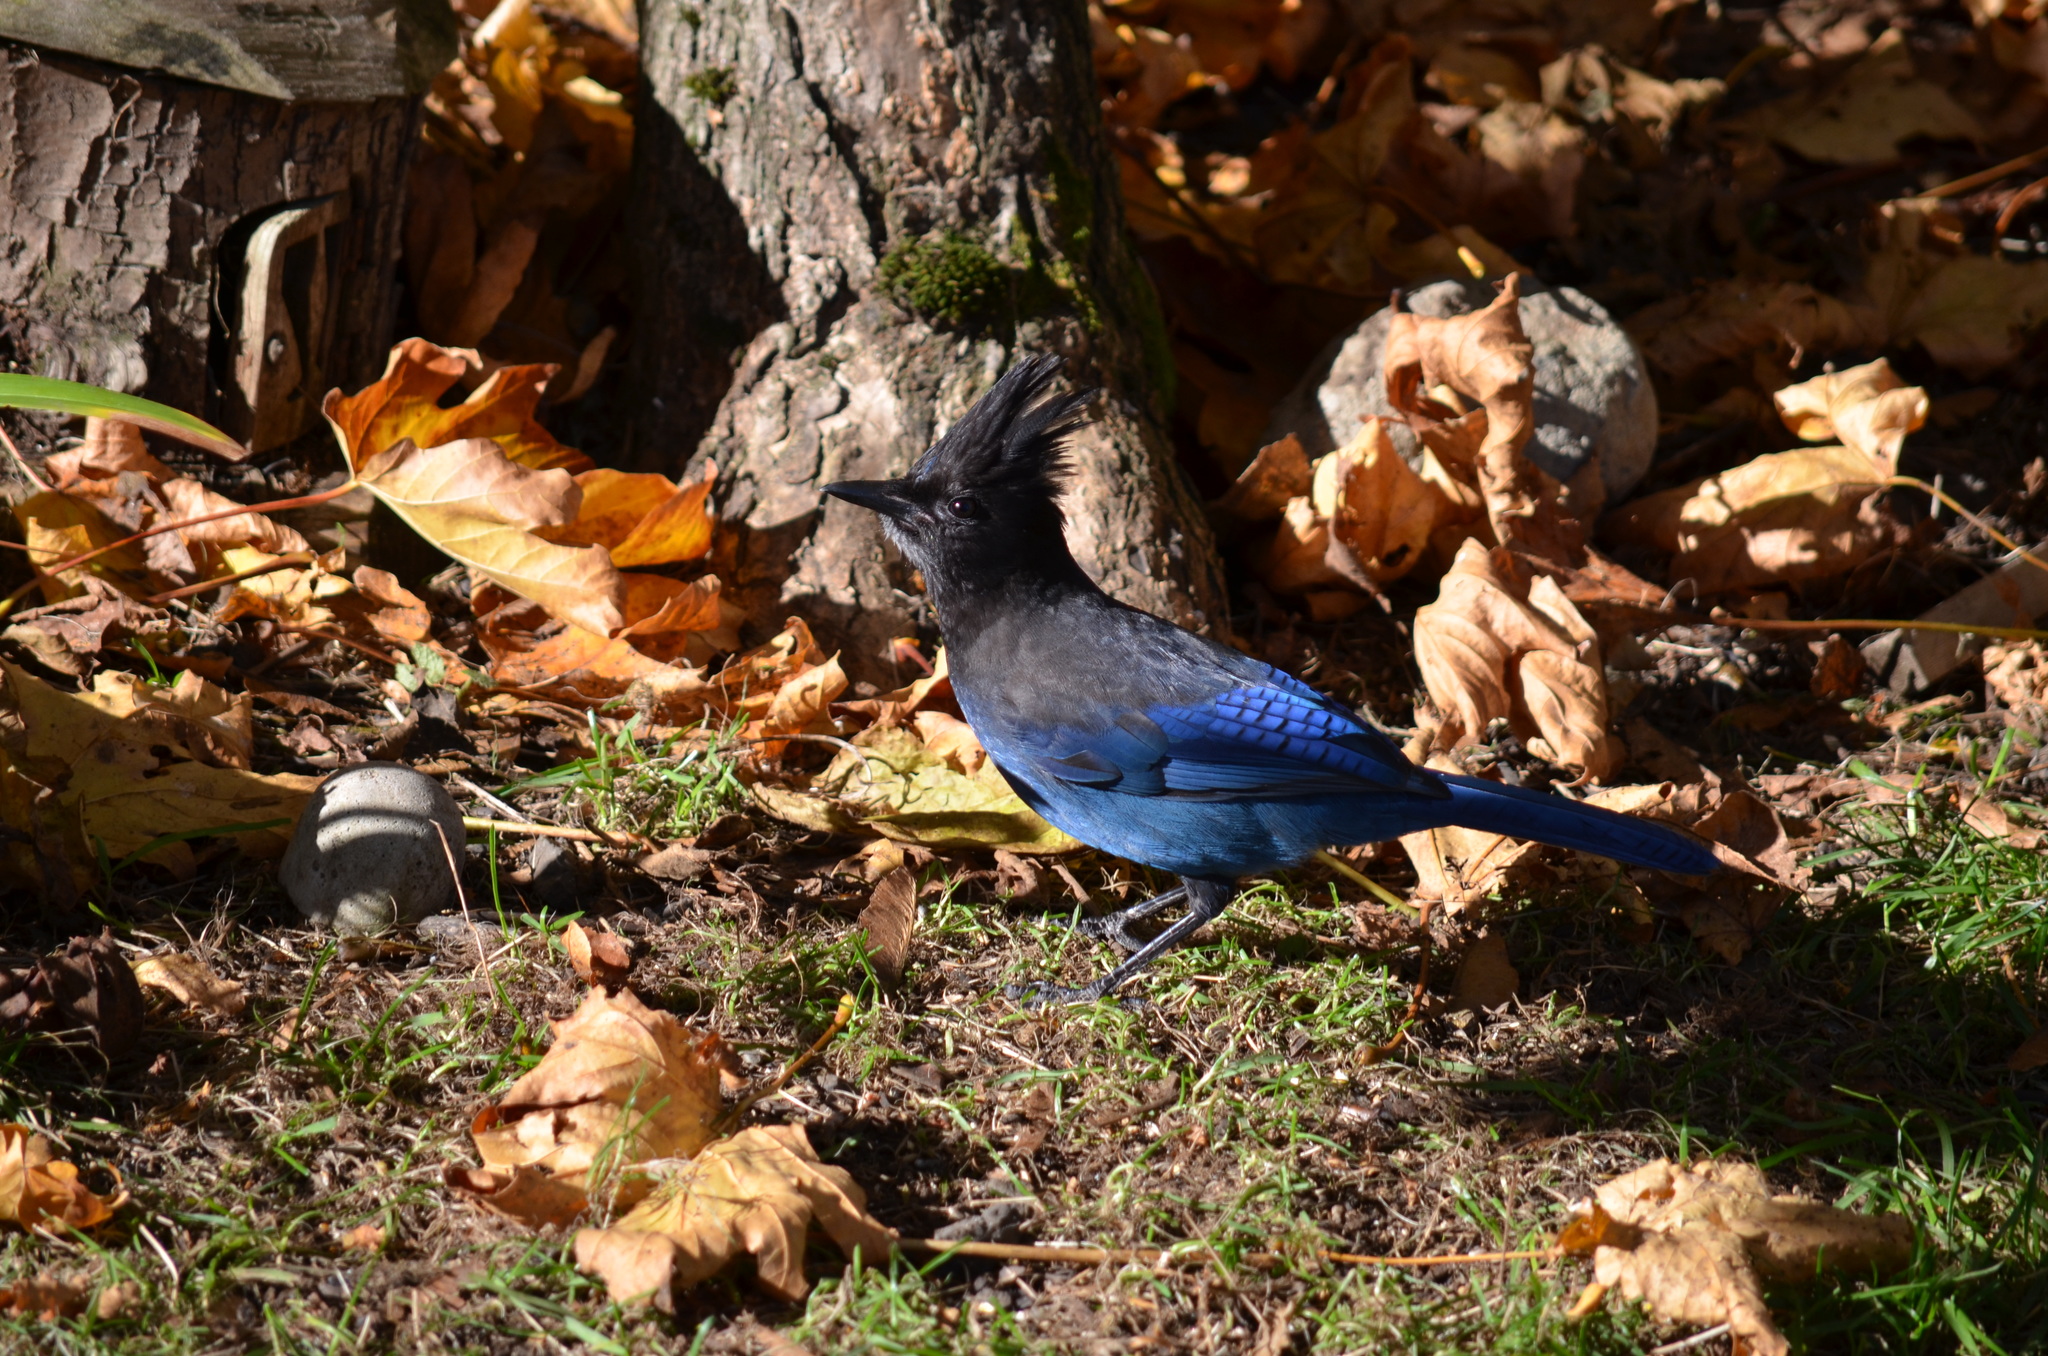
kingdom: Animalia
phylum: Chordata
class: Aves
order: Passeriformes
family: Corvidae
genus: Cyanocitta
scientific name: Cyanocitta stelleri
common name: Steller's jay
